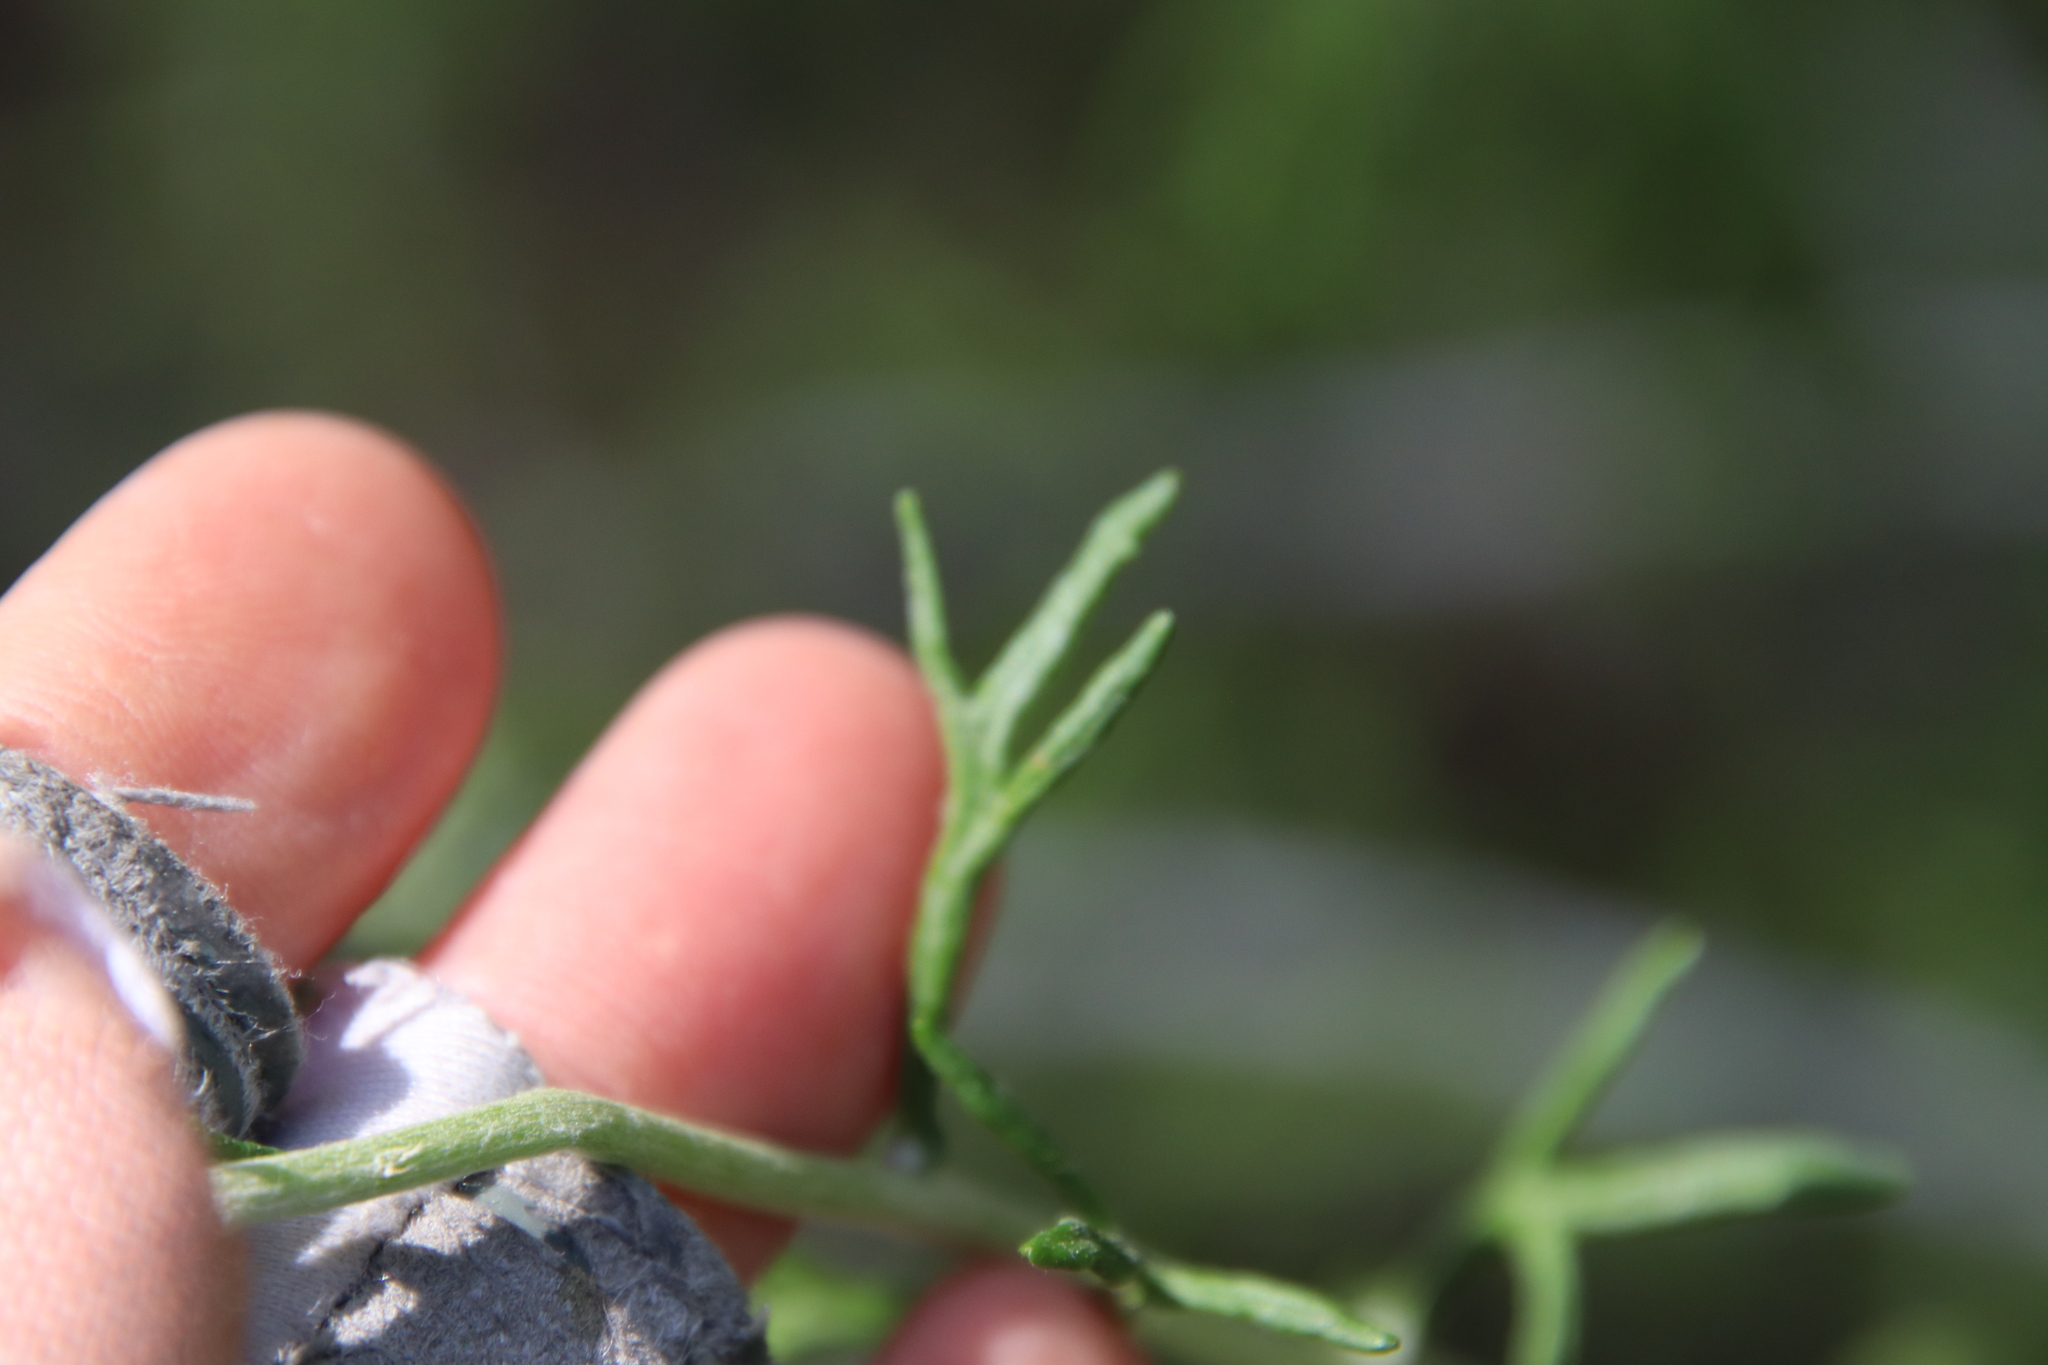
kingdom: Plantae
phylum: Tracheophyta
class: Magnoliopsida
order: Asterales
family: Asteraceae
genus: Eriophyllum
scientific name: Eriophyllum confertiflorum
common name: Golden-yarrow
